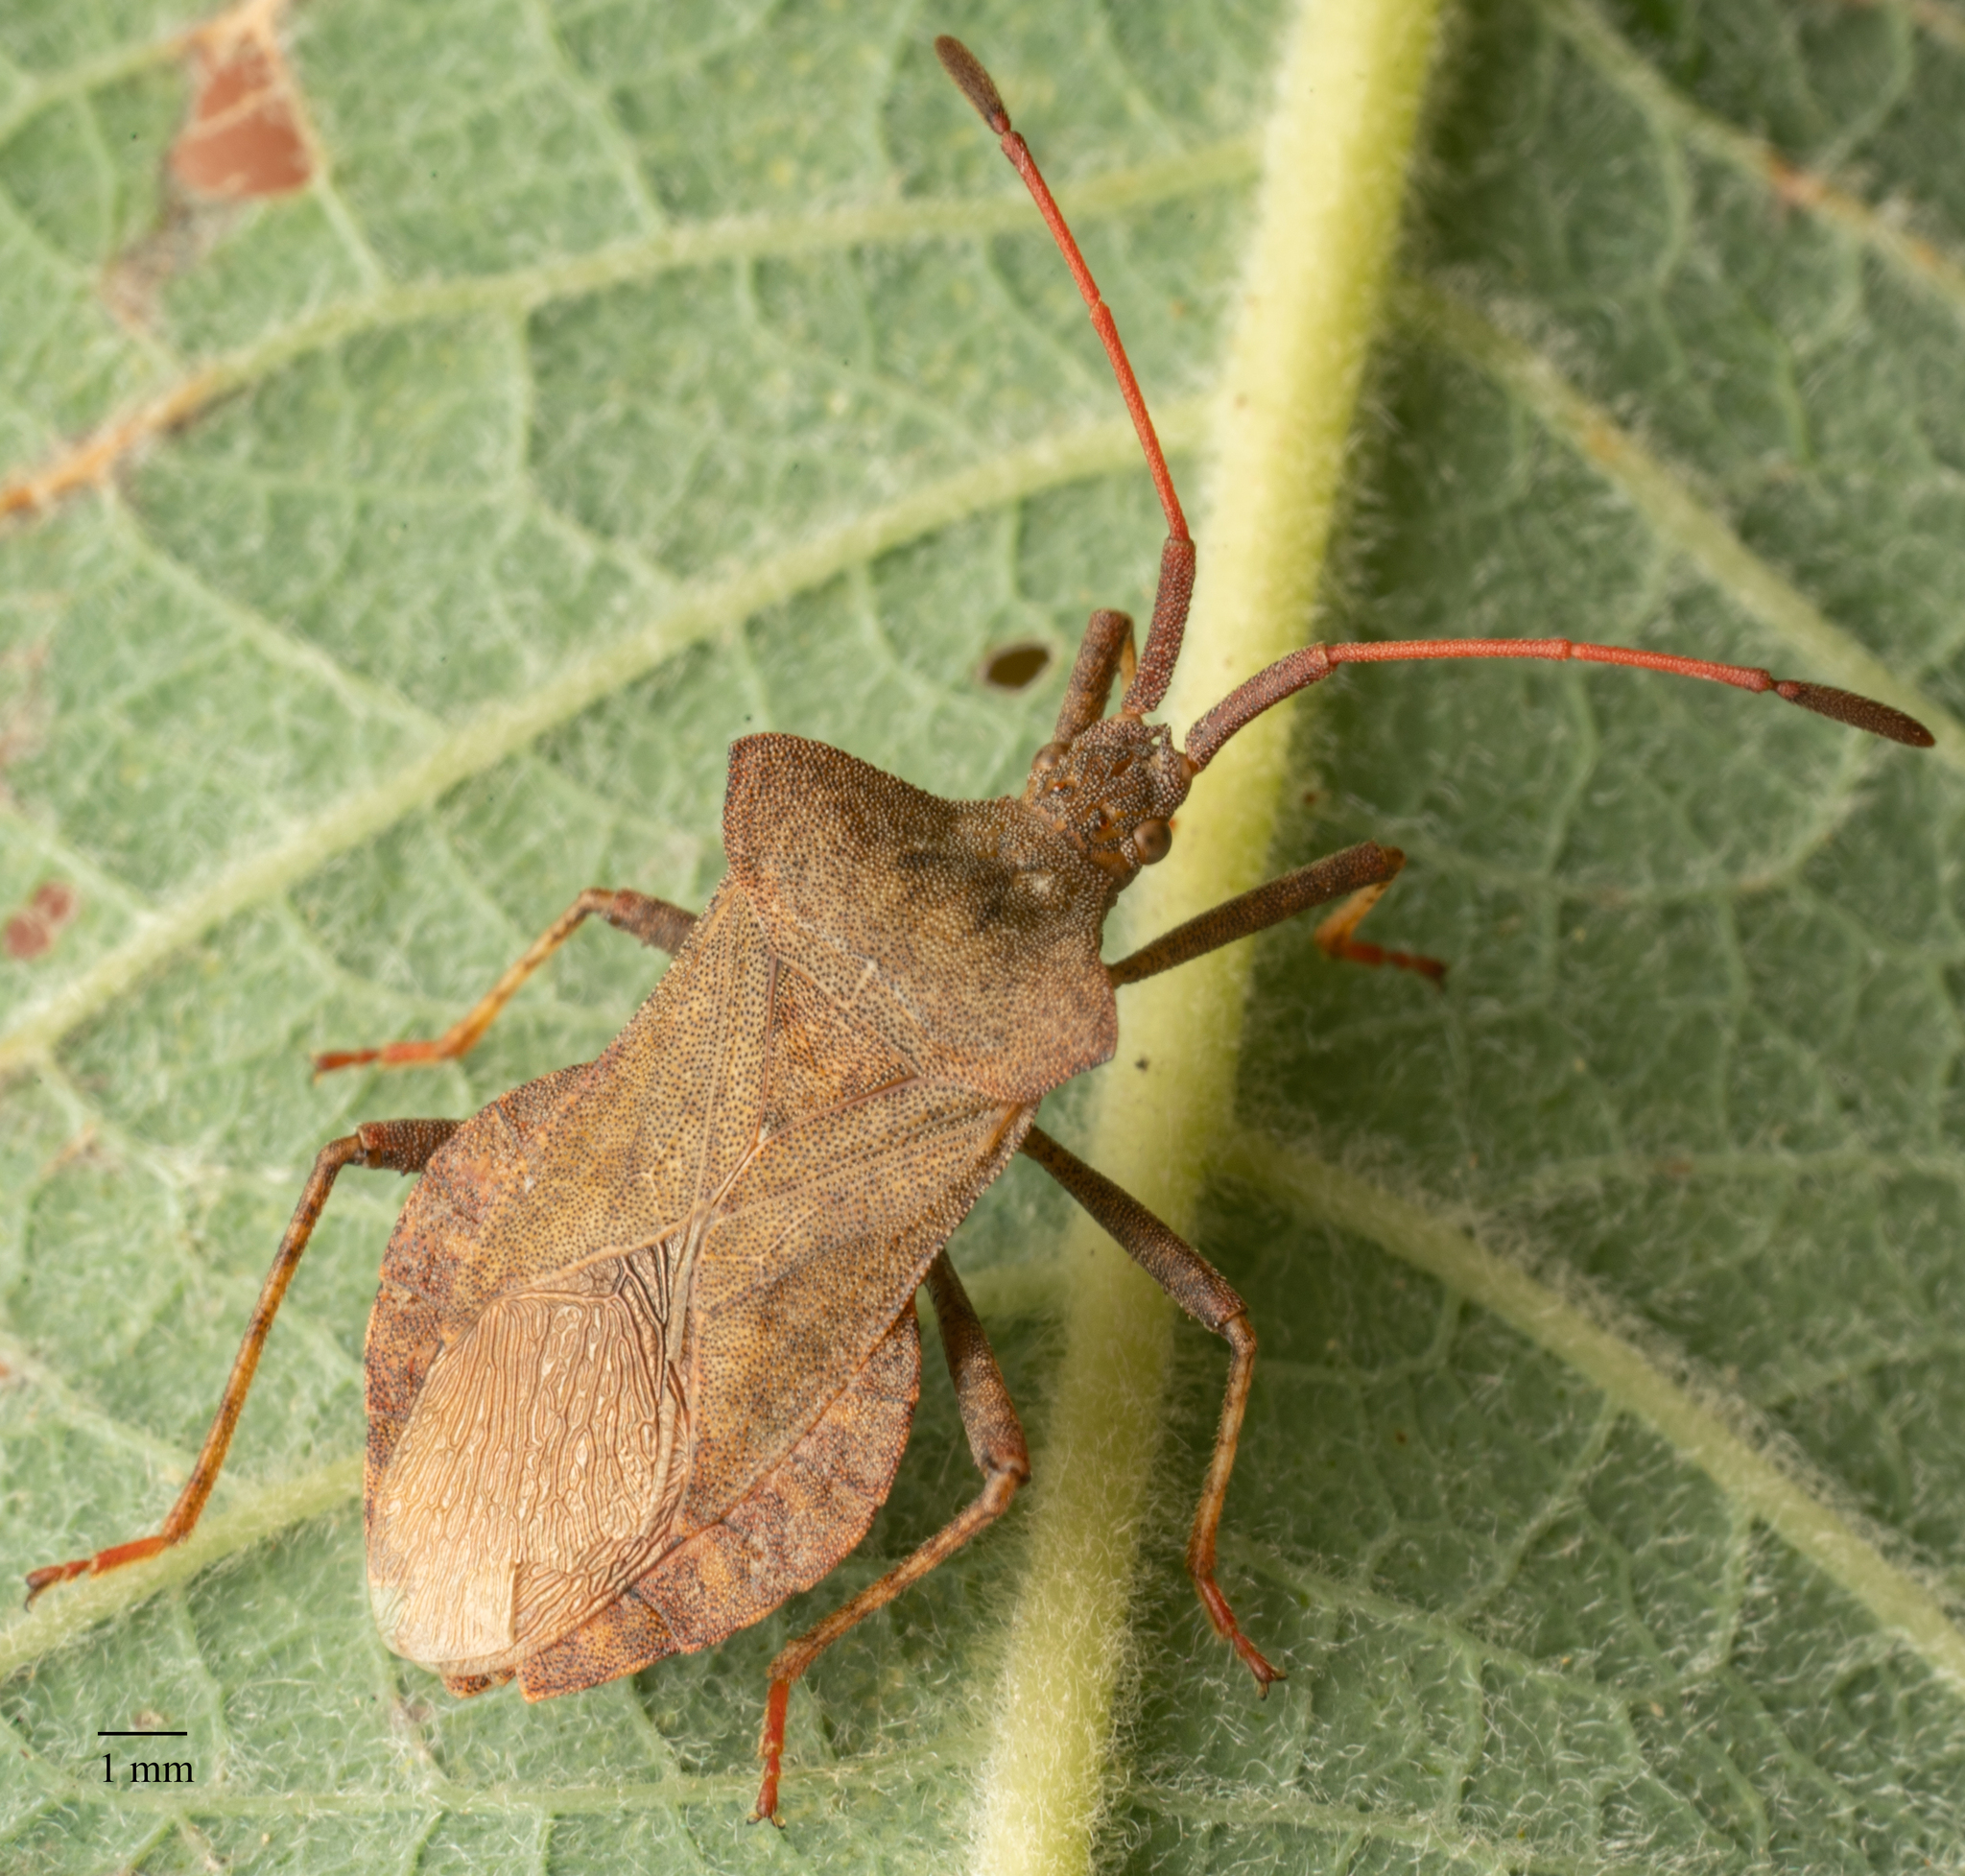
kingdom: Animalia
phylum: Arthropoda
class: Insecta
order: Hemiptera
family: Coreidae
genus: Coreus
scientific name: Coreus marginatus
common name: Dock bug
